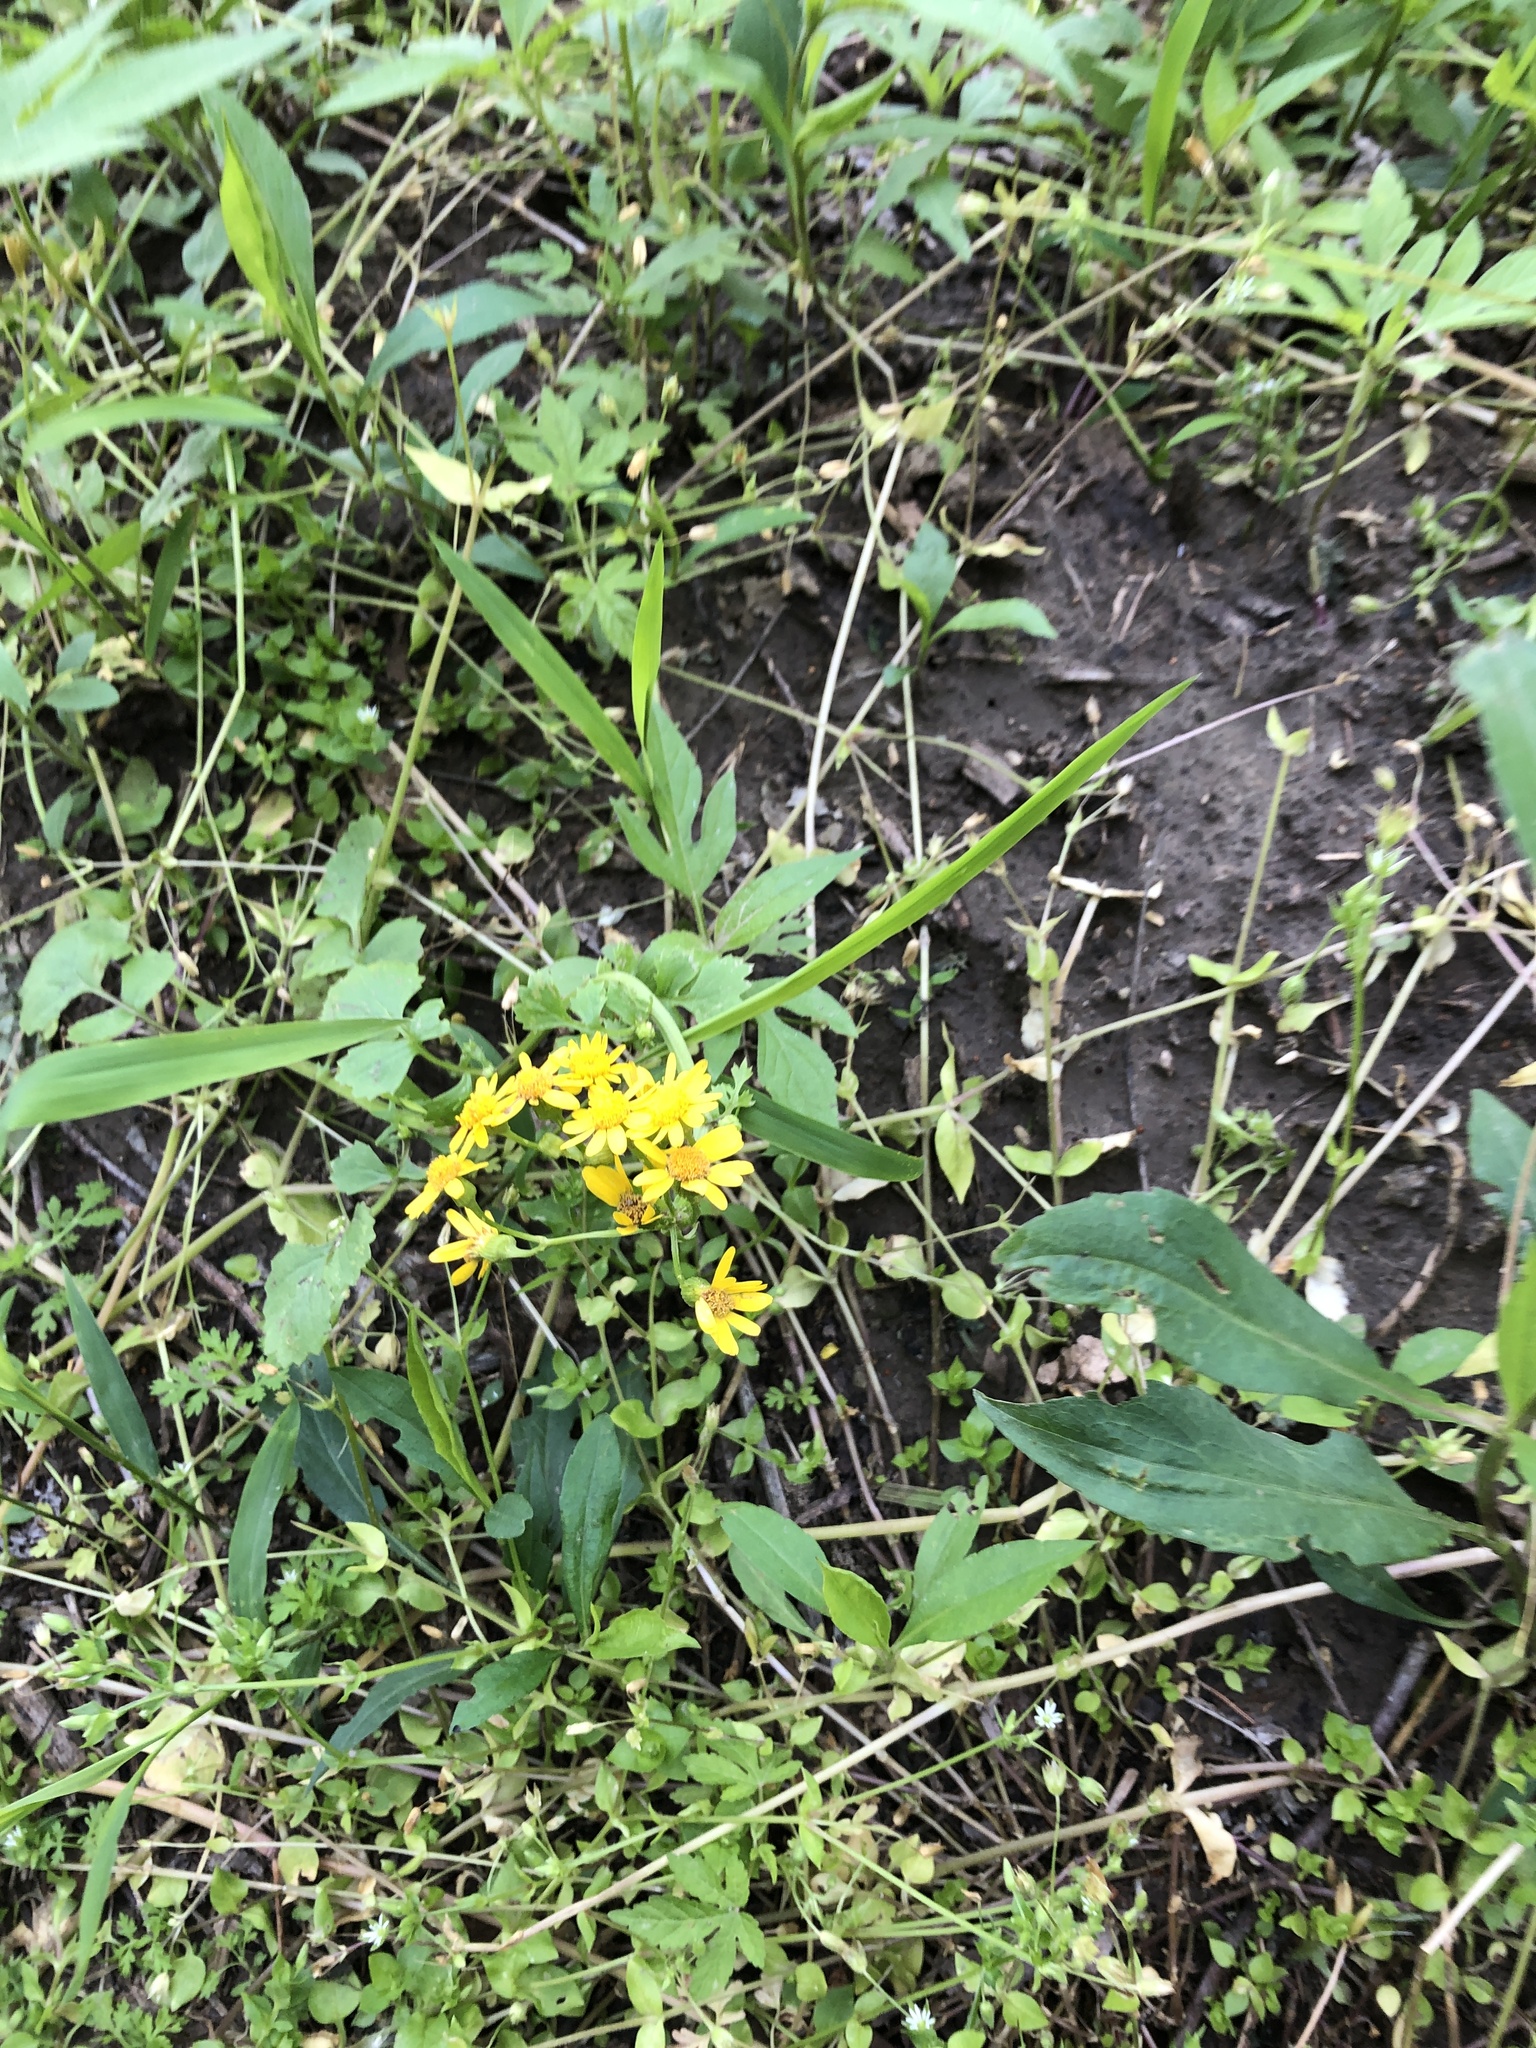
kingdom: Plantae
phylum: Tracheophyta
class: Magnoliopsida
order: Asterales
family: Asteraceae
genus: Packera
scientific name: Packera glabella
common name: Butterweed
